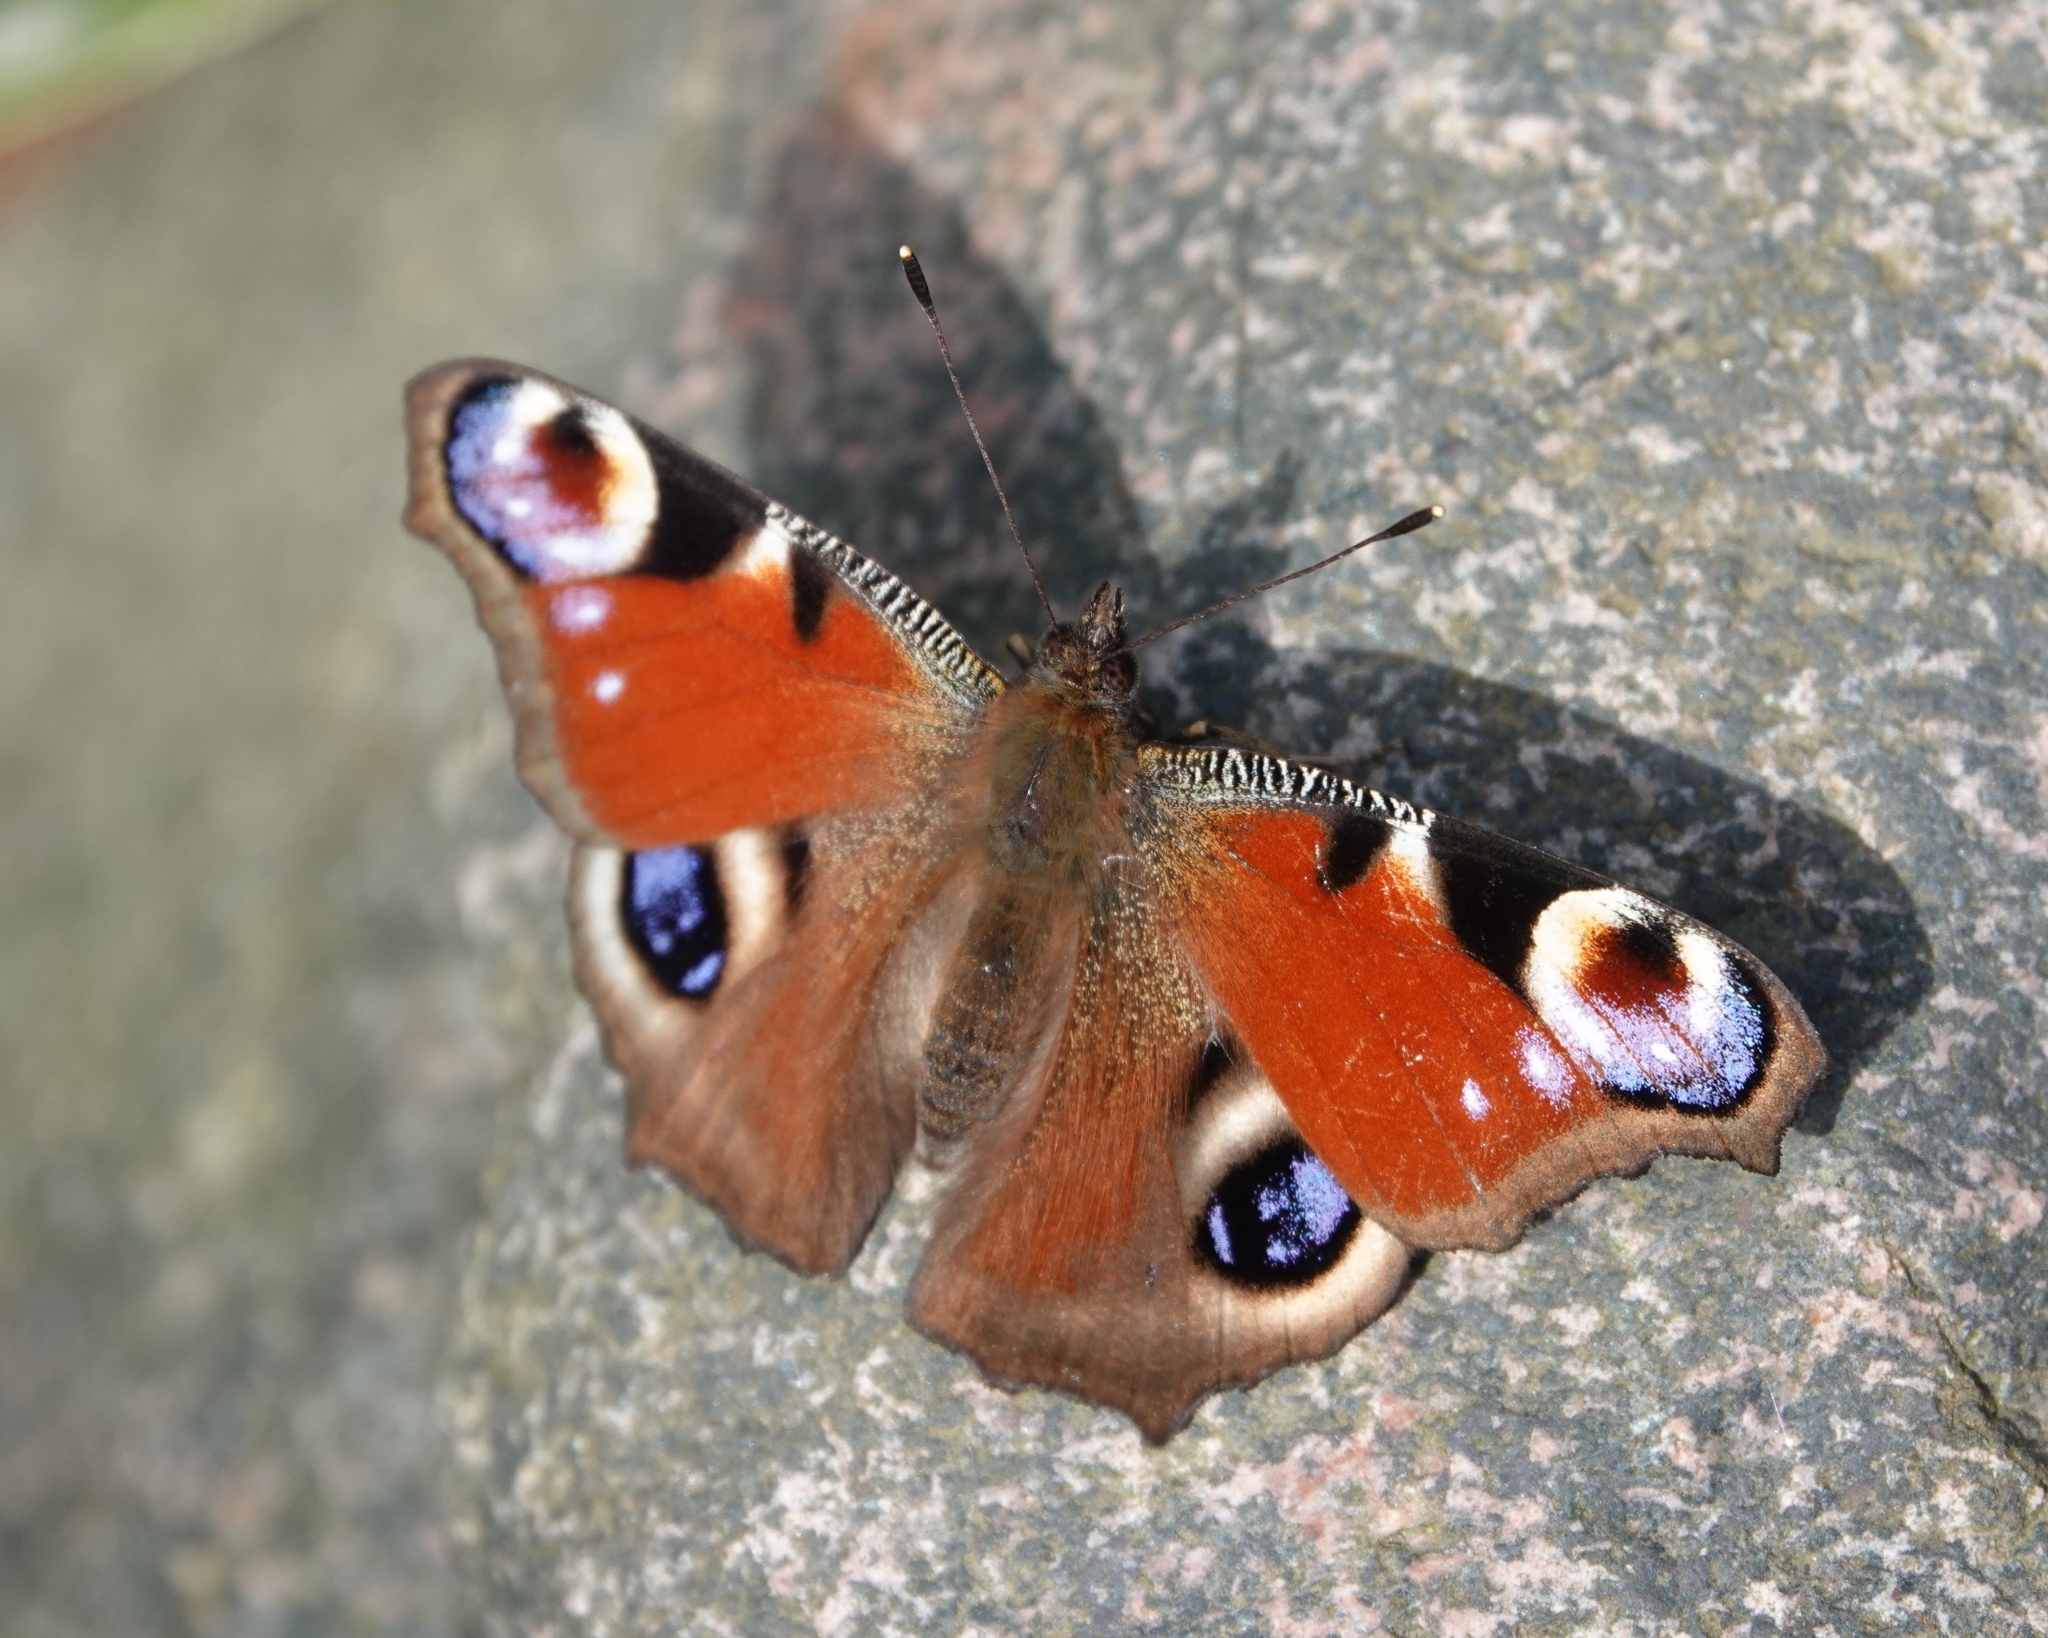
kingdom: Animalia
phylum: Arthropoda
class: Insecta
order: Lepidoptera
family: Nymphalidae
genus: Aglais
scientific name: Aglais io
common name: Peacock
